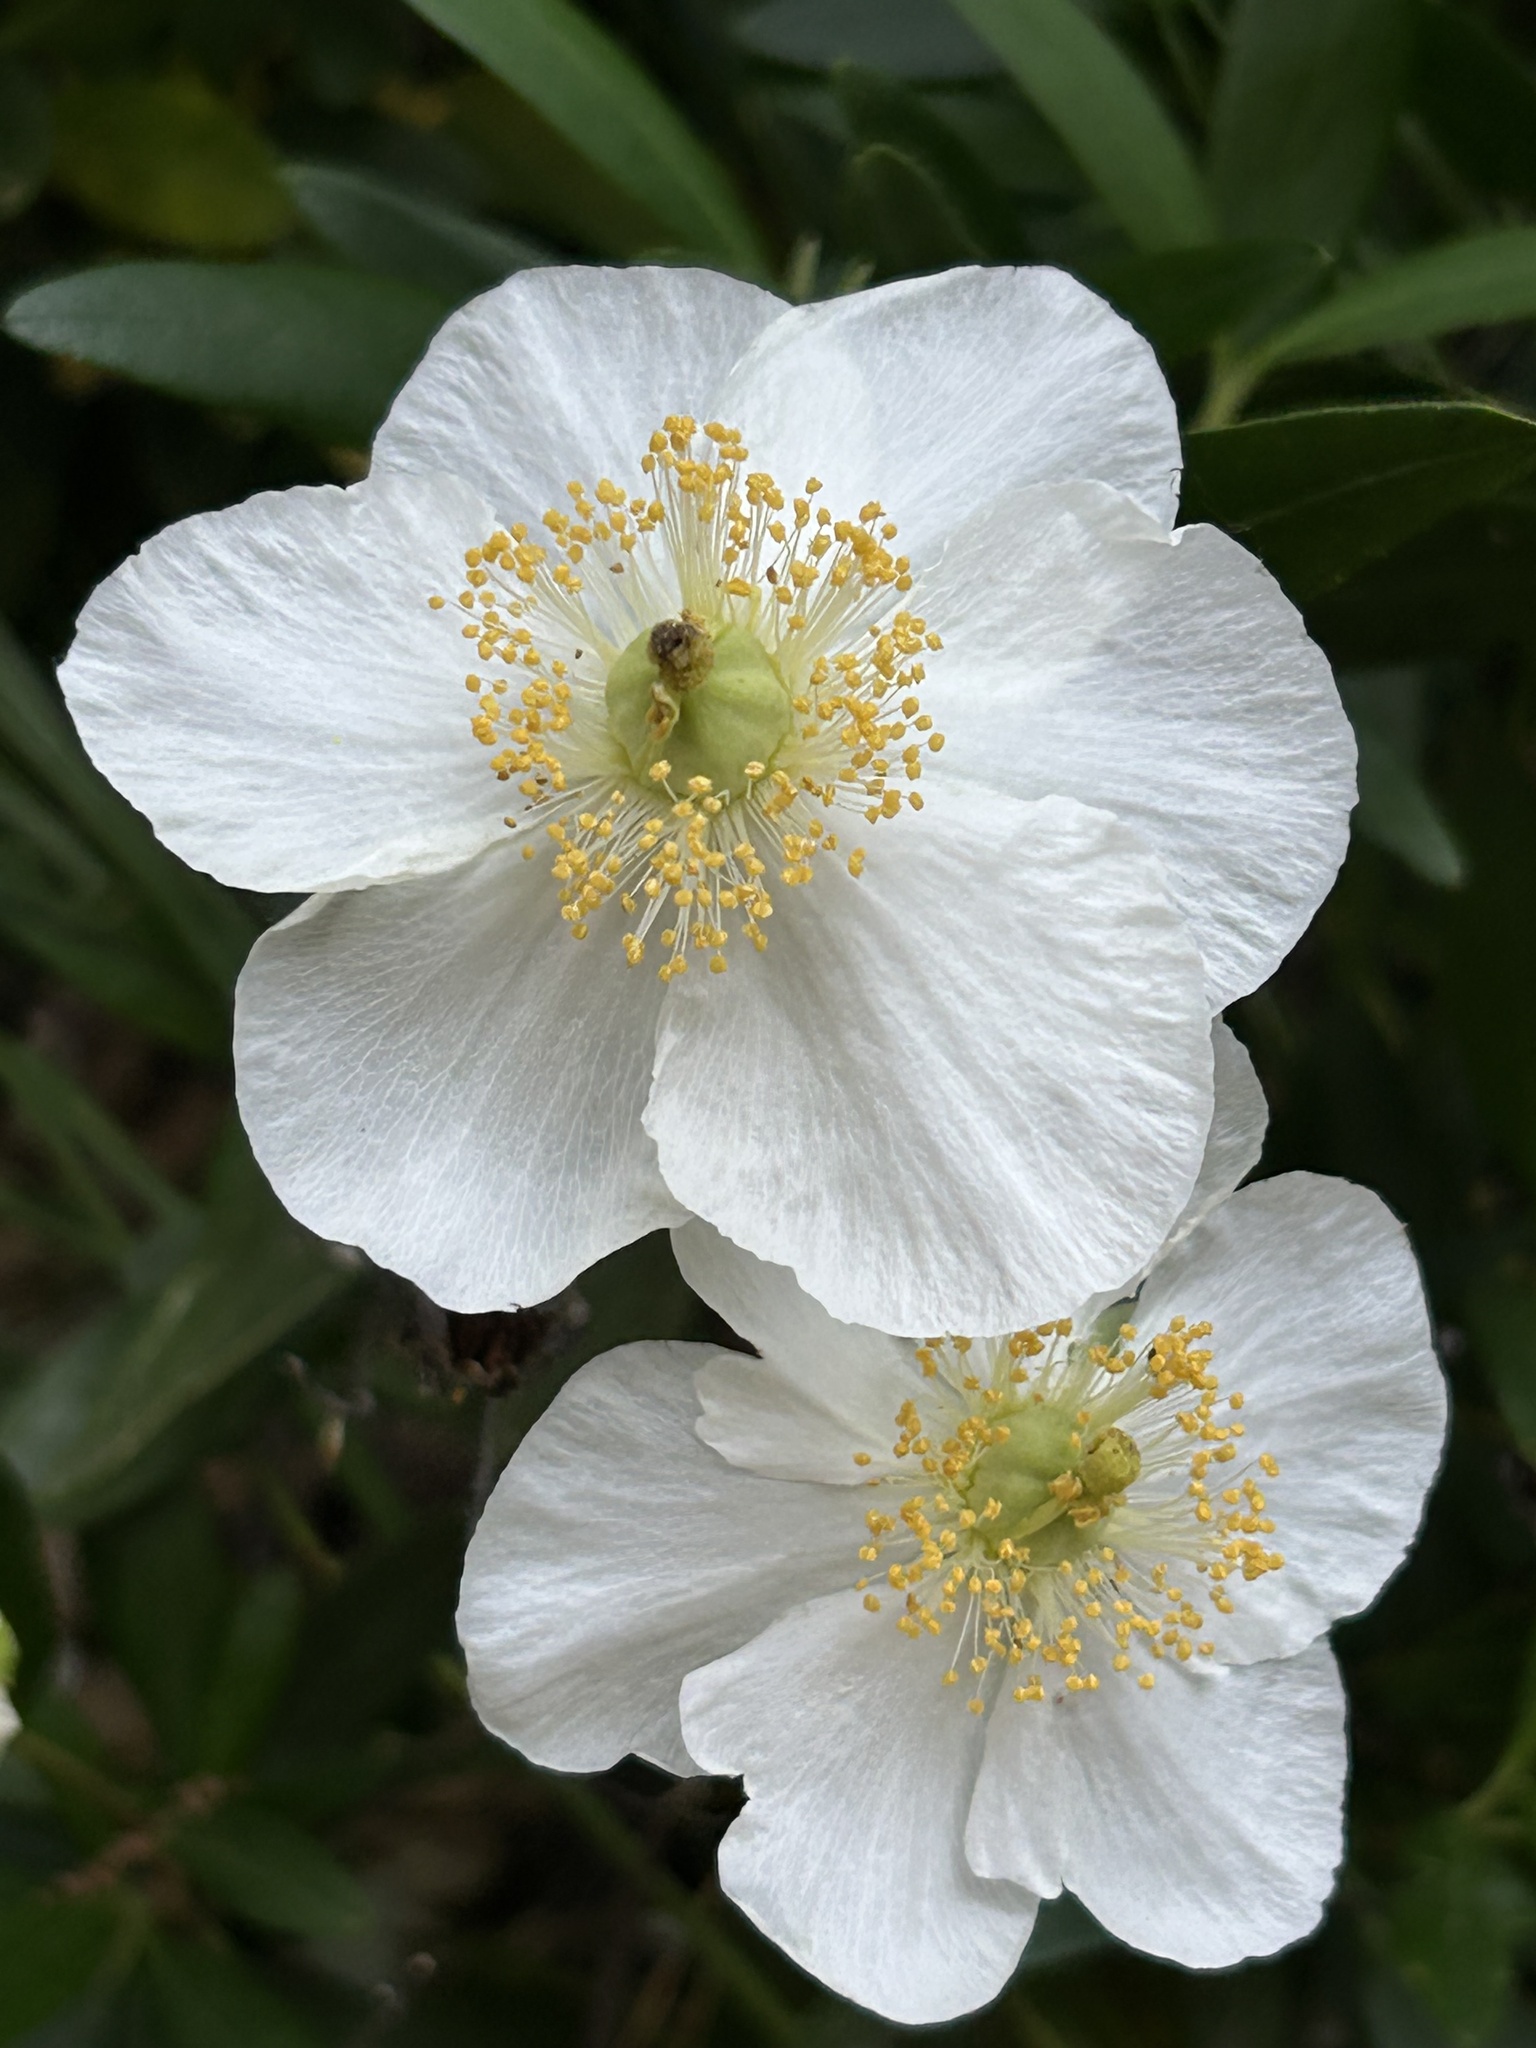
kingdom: Plantae
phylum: Tracheophyta
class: Magnoliopsida
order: Cornales
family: Hydrangeaceae
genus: Carpenteria
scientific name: Carpenteria californica
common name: Tree-anomone
